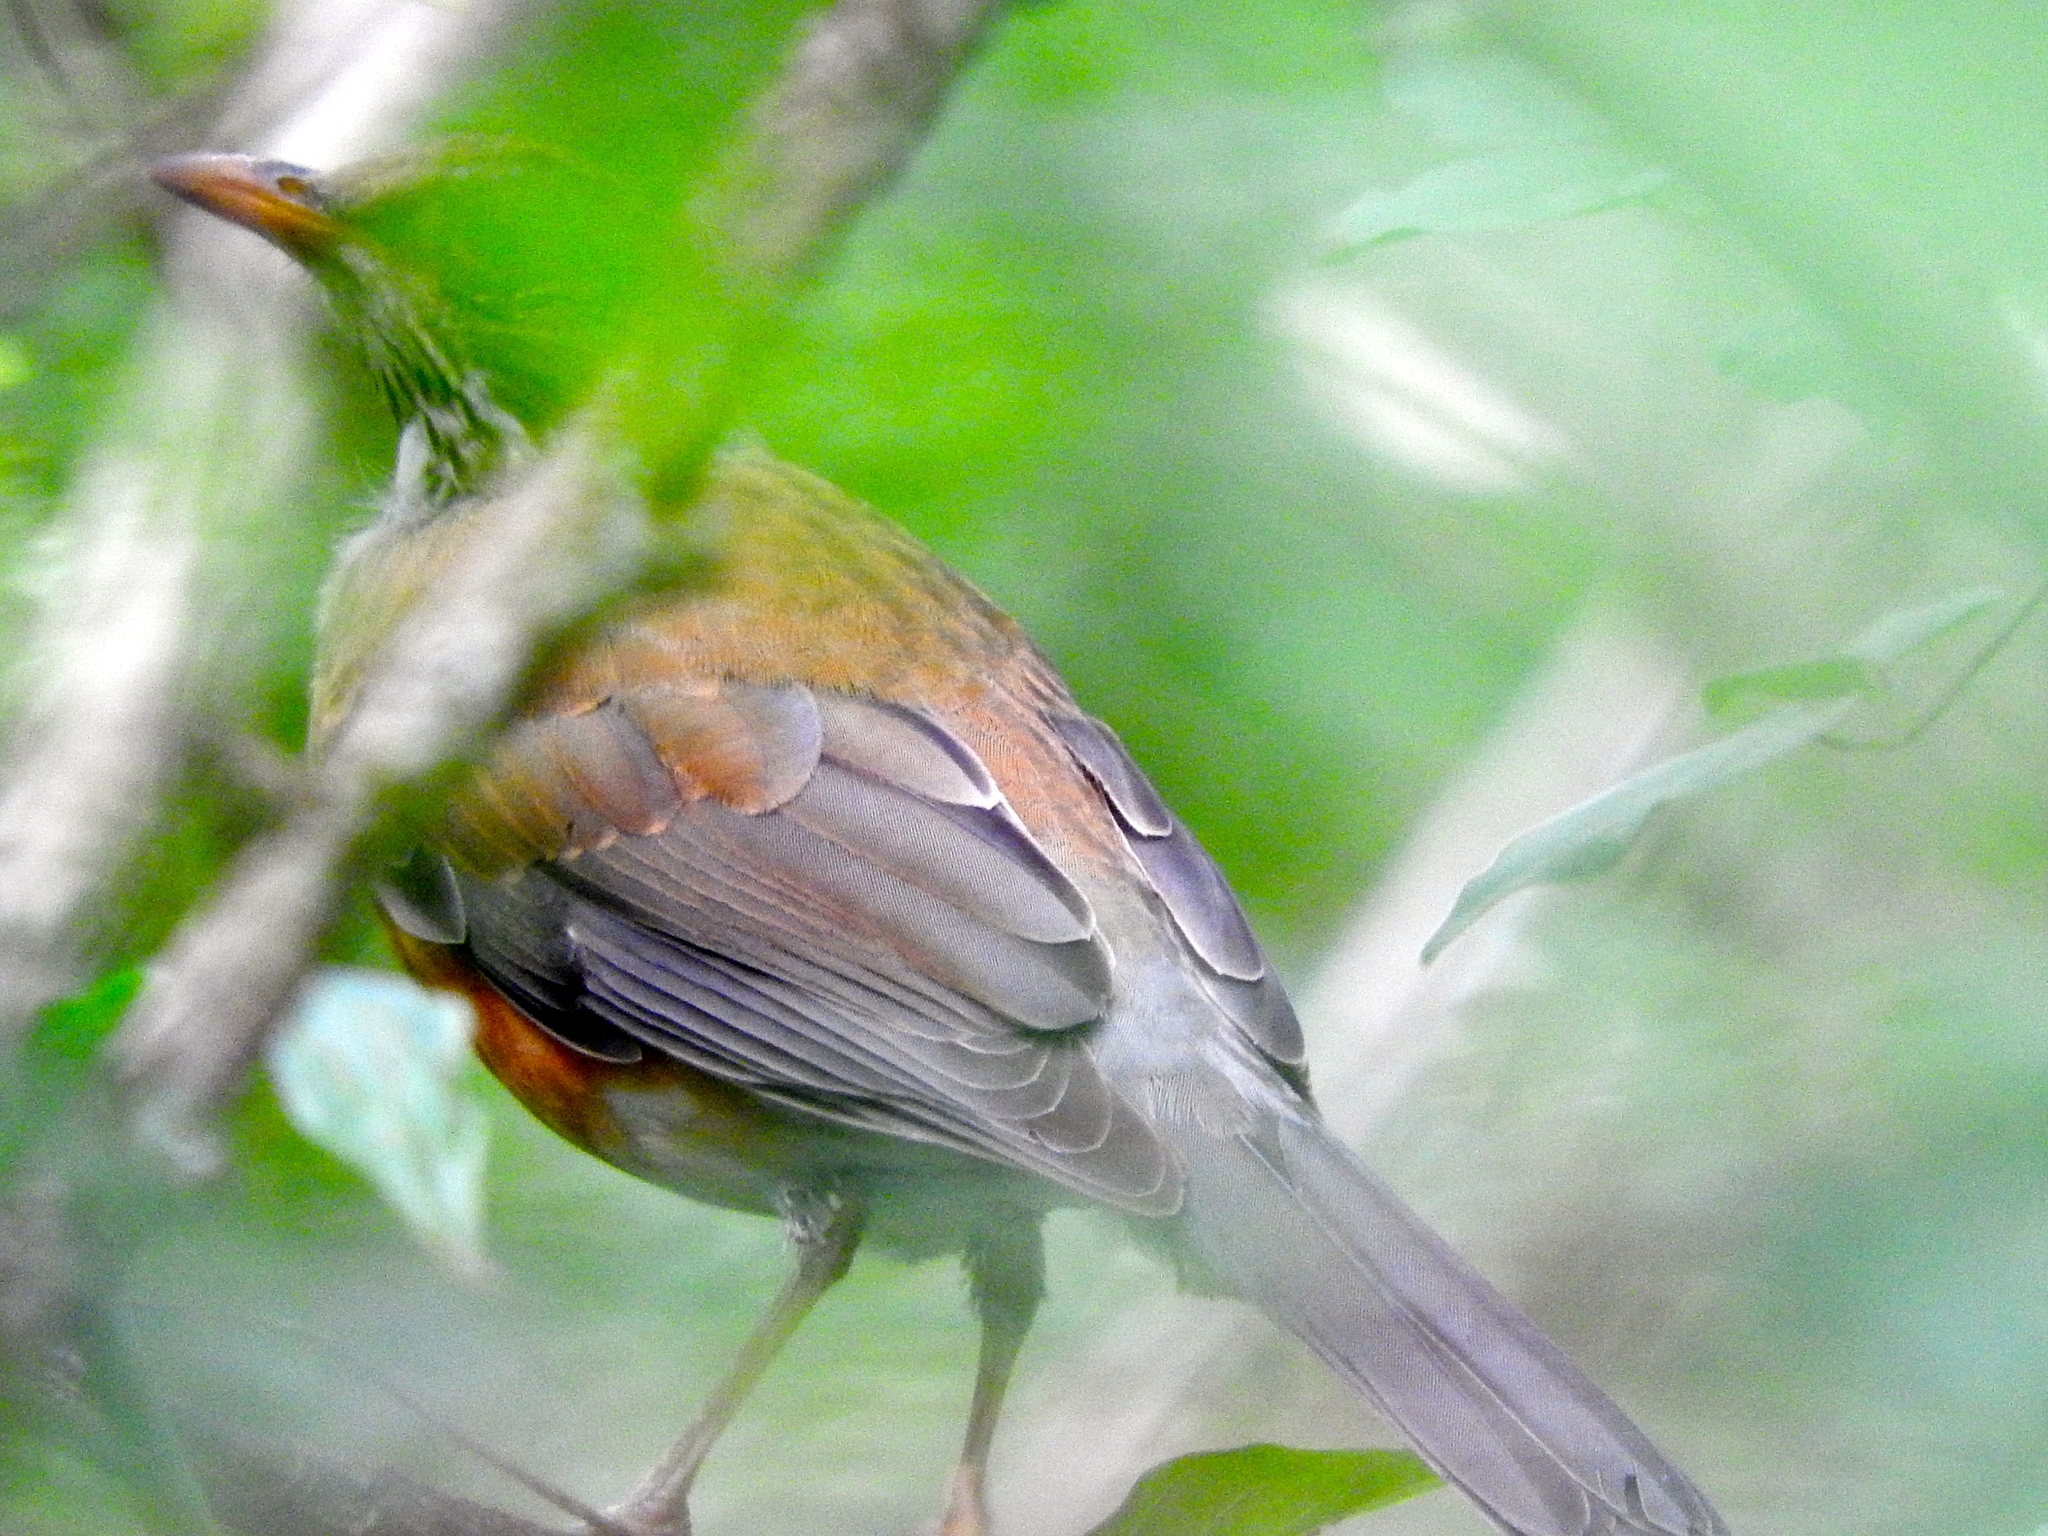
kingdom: Animalia
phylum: Chordata
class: Aves
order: Passeriformes
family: Turdidae
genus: Turdus
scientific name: Turdus rufopalliatus
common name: Rufous-backed robin
